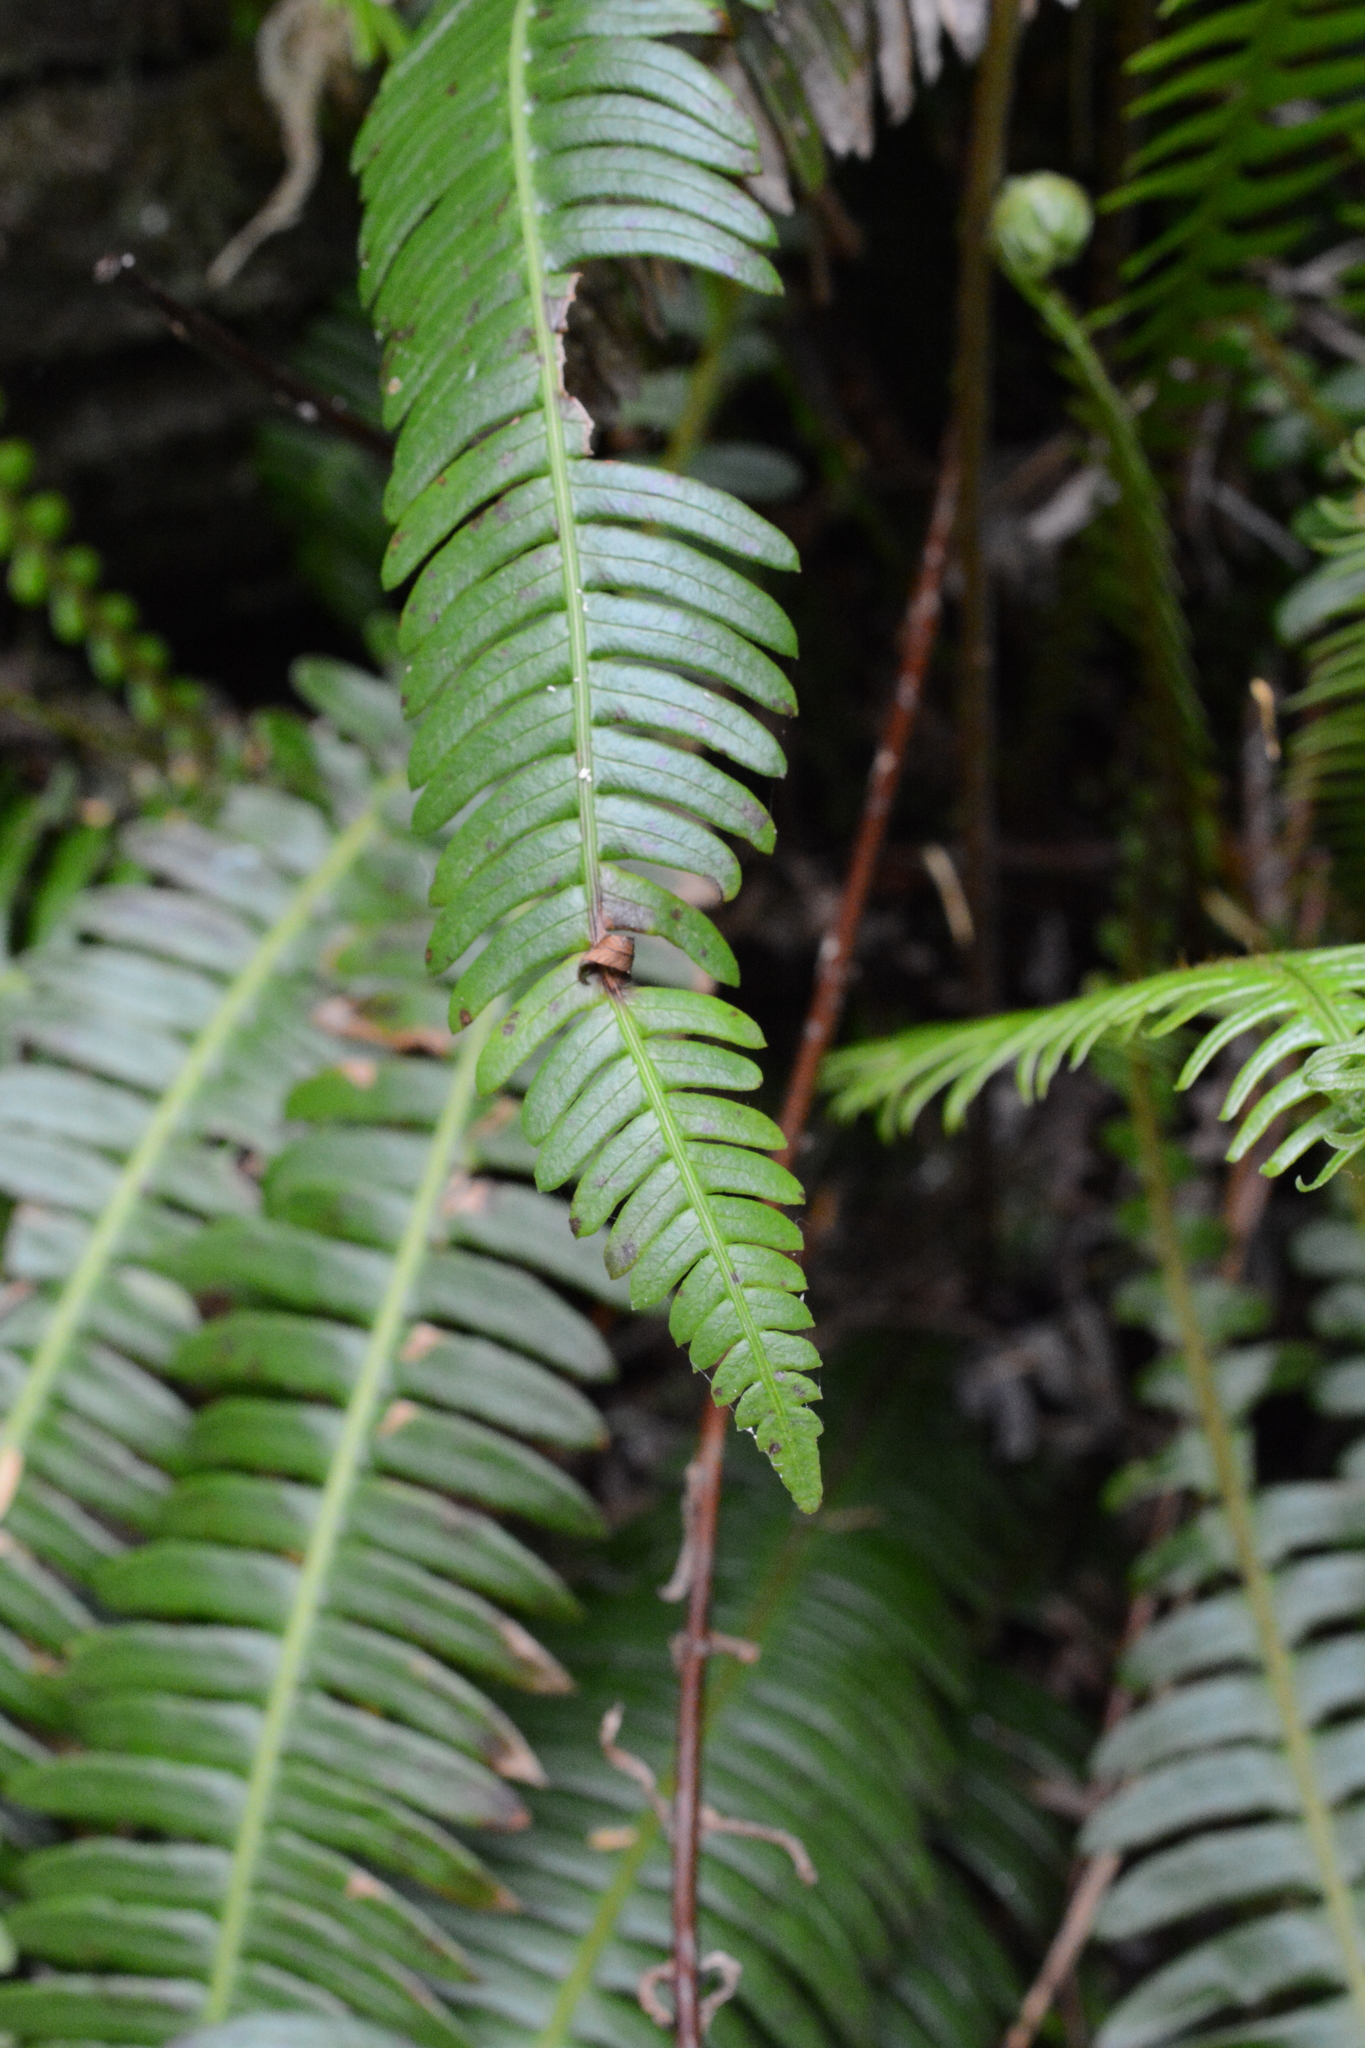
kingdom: Plantae
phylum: Tracheophyta
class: Polypodiopsida
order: Polypodiales
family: Blechnaceae
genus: Struthiopteris
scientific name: Struthiopteris spicant
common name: Deer fern
